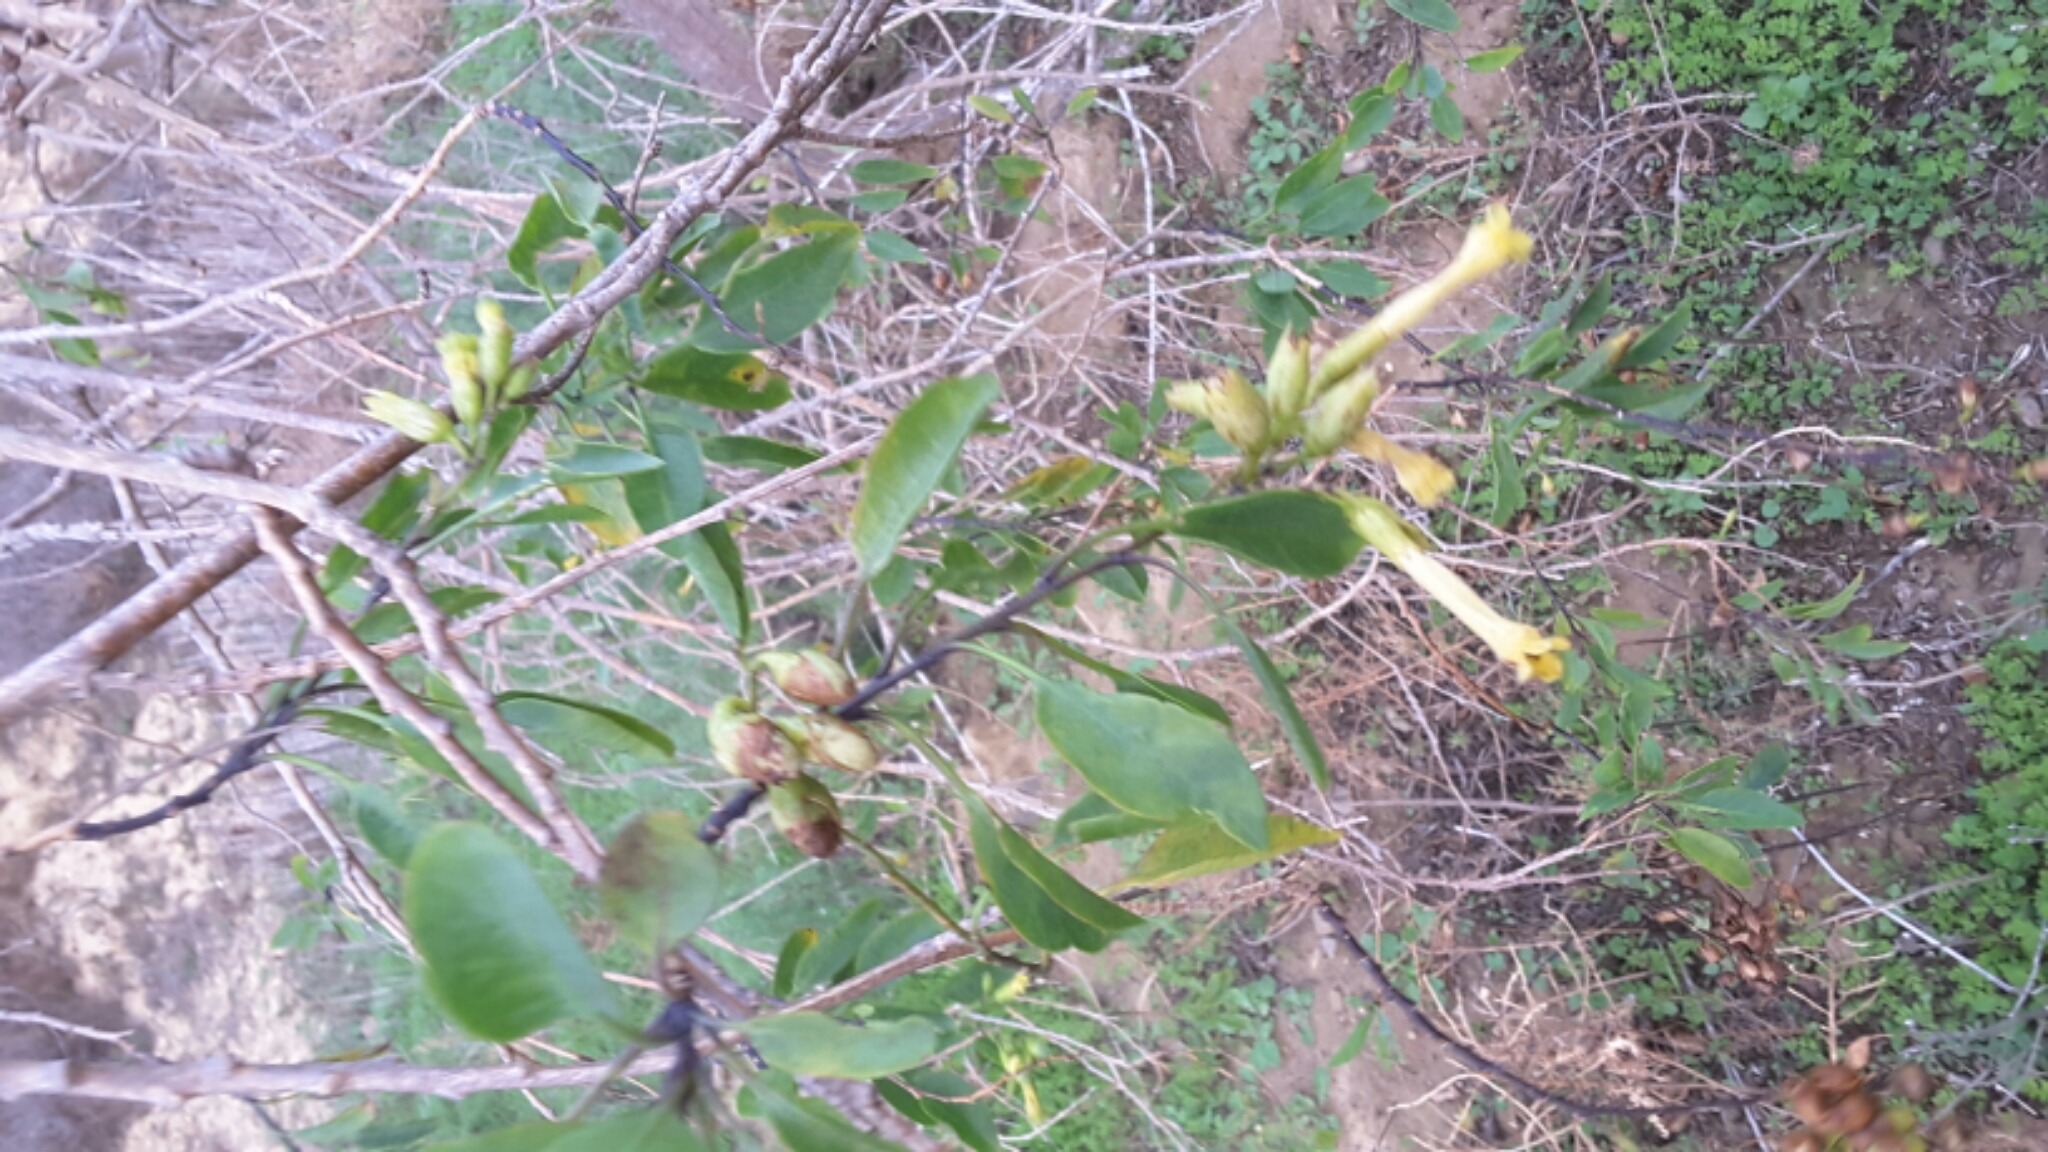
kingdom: Plantae
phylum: Tracheophyta
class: Magnoliopsida
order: Solanales
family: Solanaceae
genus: Nicotiana
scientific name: Nicotiana glauca
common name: Tree tobacco
